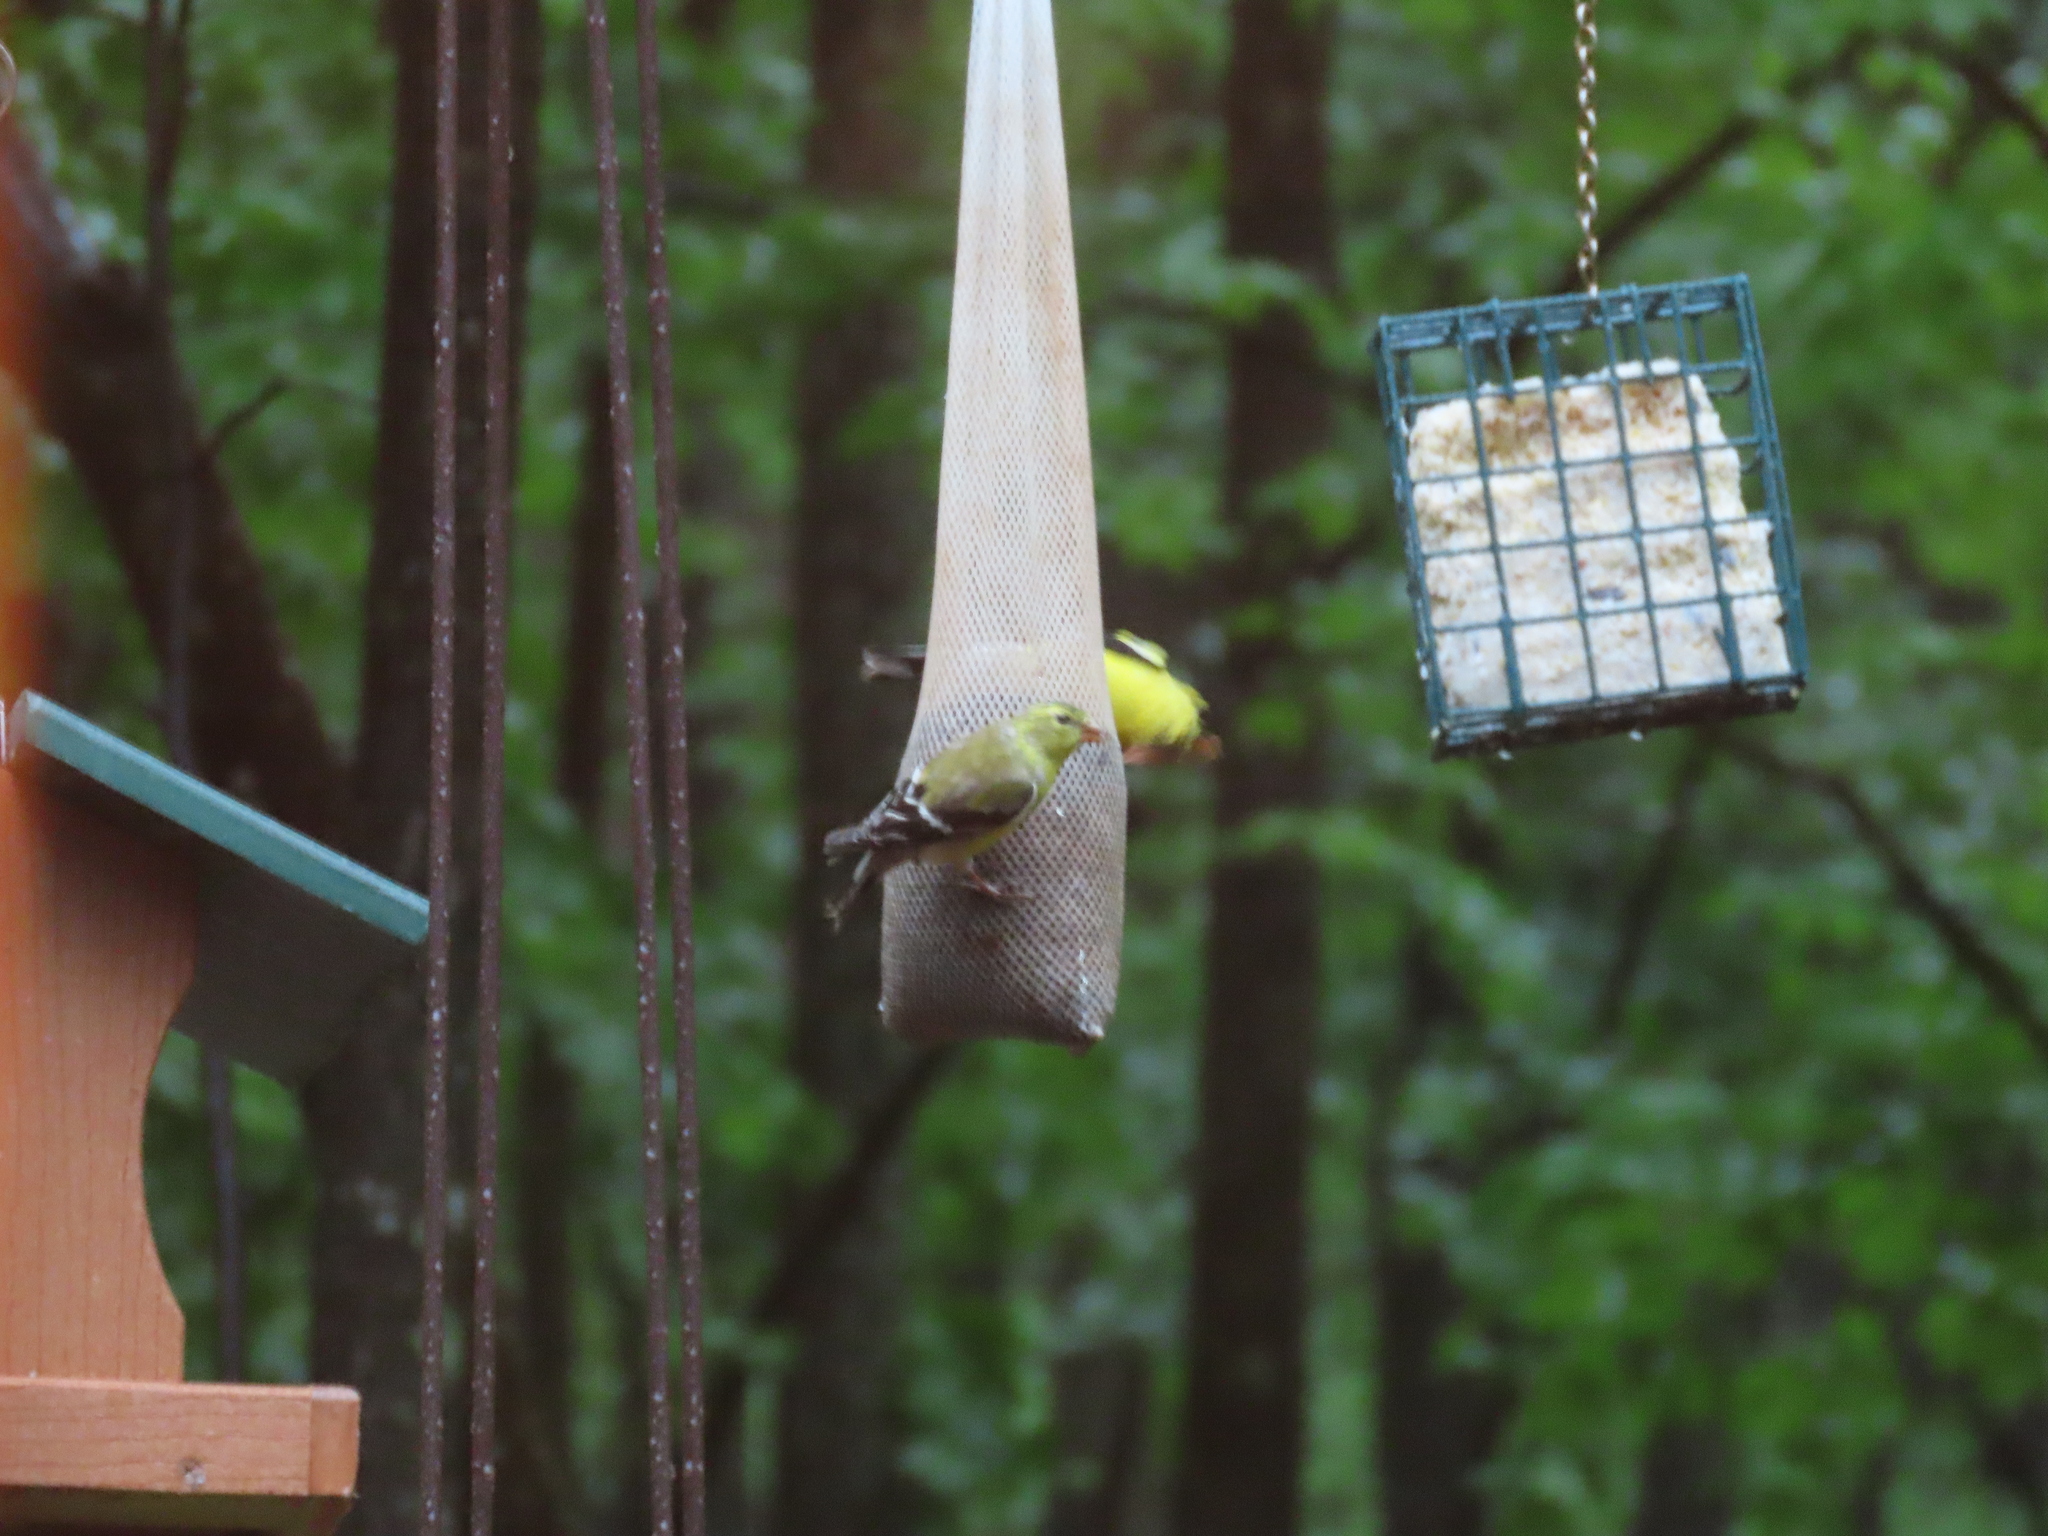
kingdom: Animalia
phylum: Chordata
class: Aves
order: Passeriformes
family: Fringillidae
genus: Spinus
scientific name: Spinus tristis
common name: American goldfinch
